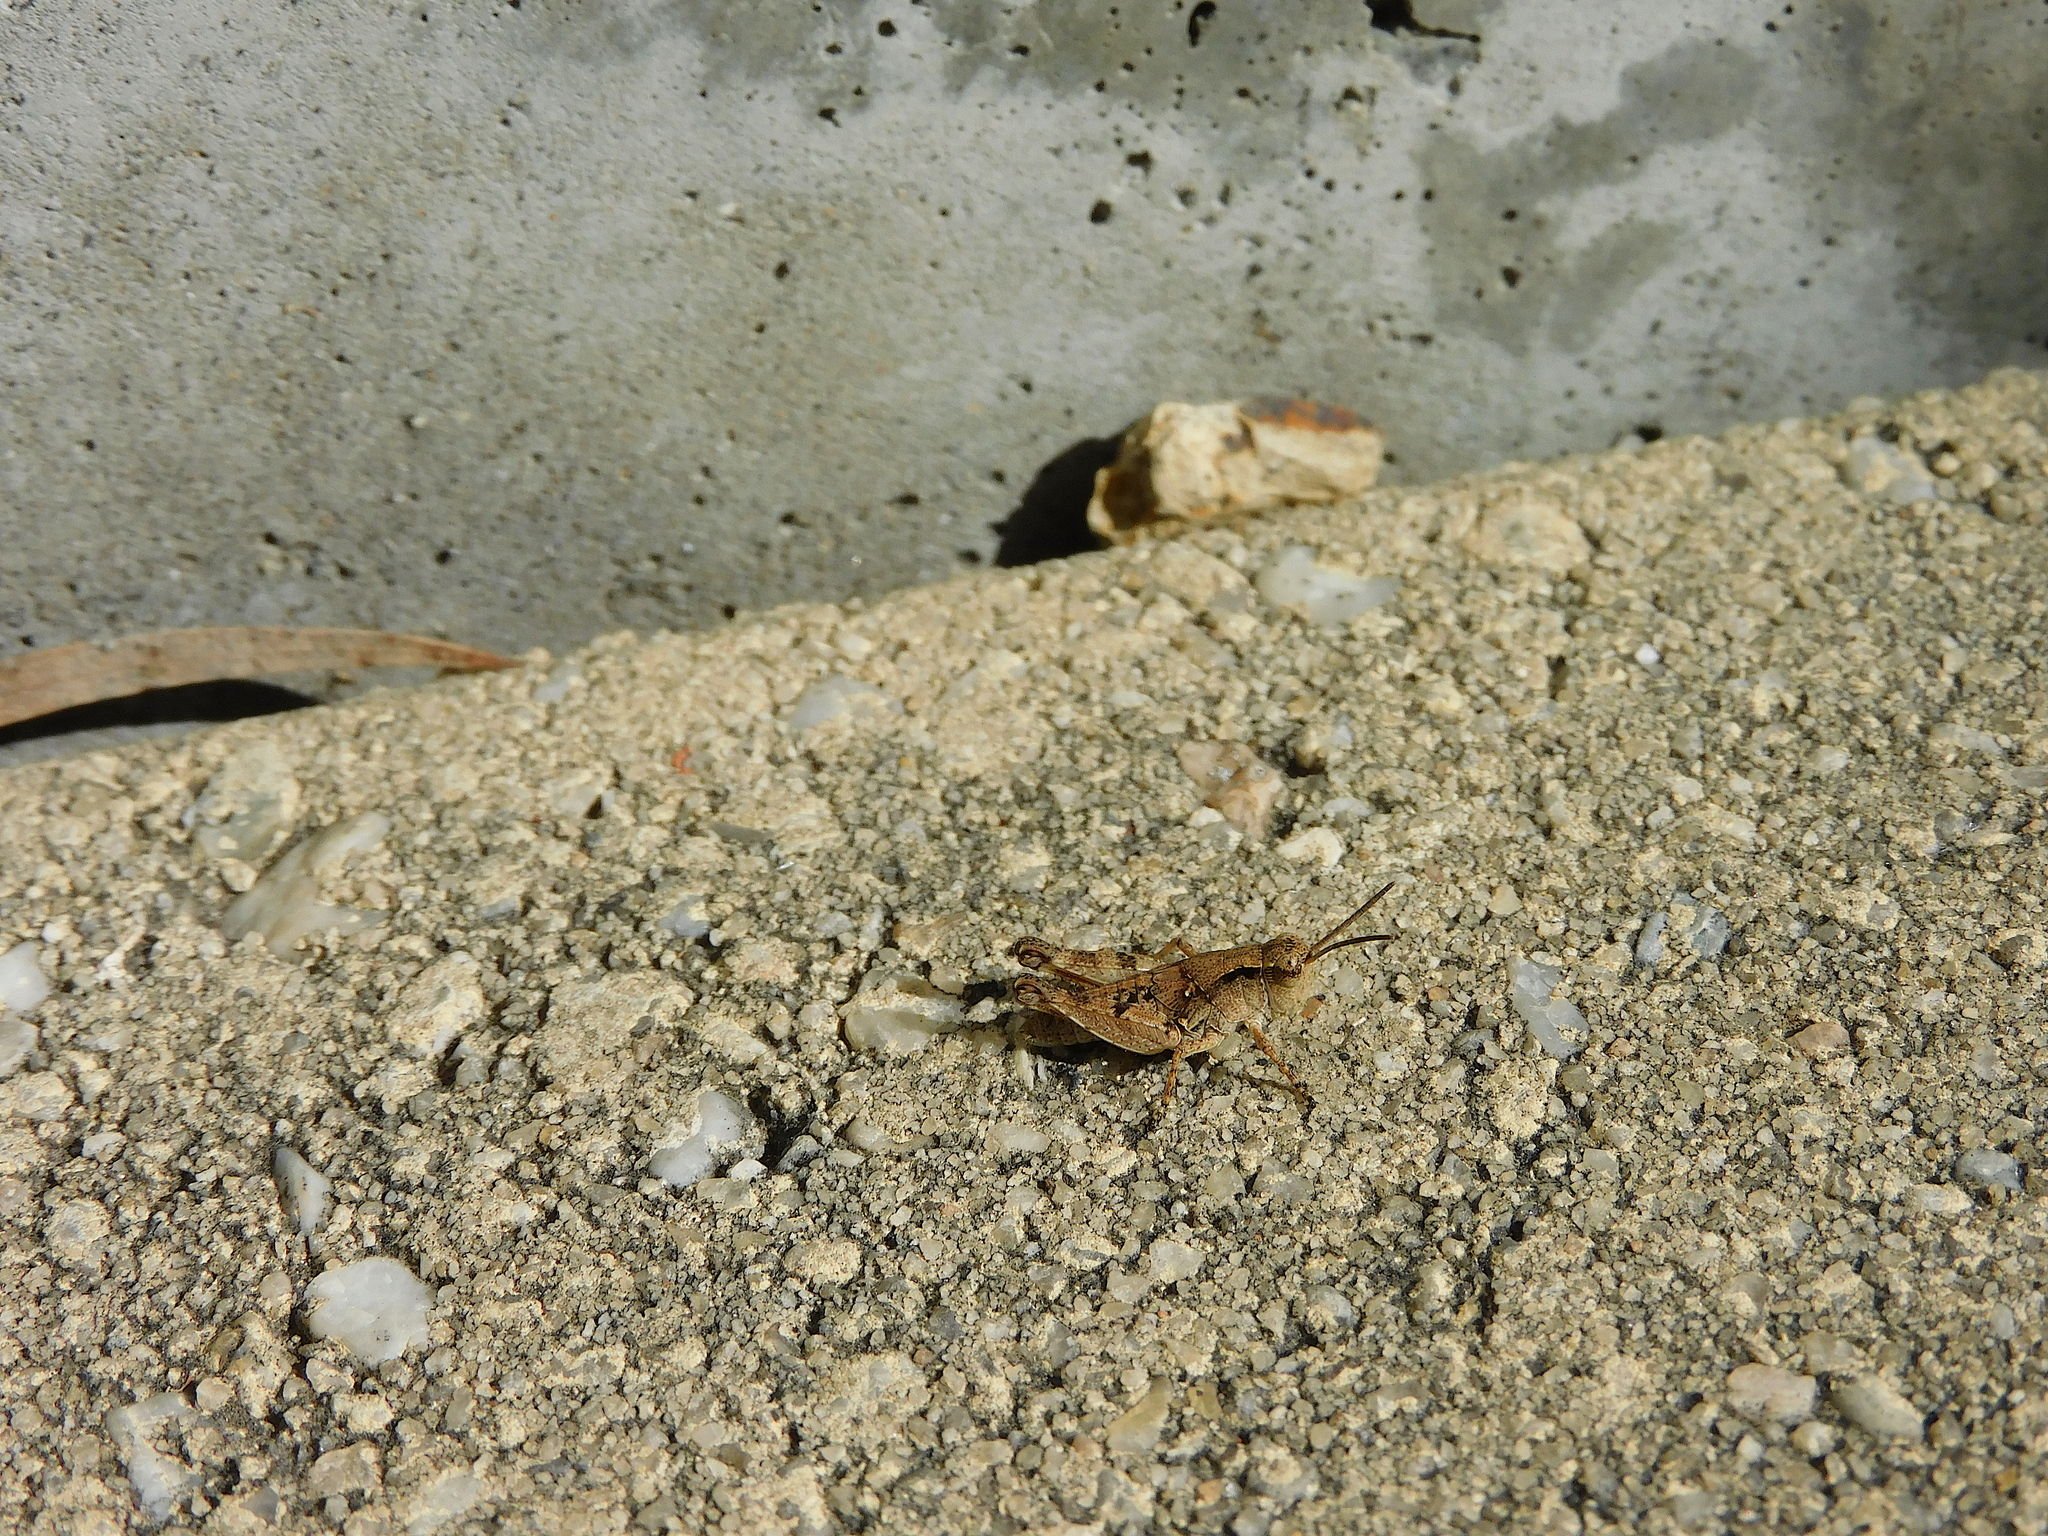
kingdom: Animalia
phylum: Arthropoda
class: Insecta
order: Orthoptera
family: Acrididae
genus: Phaulacridium
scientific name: Phaulacridium vittatum
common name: Wingless grasshopper
